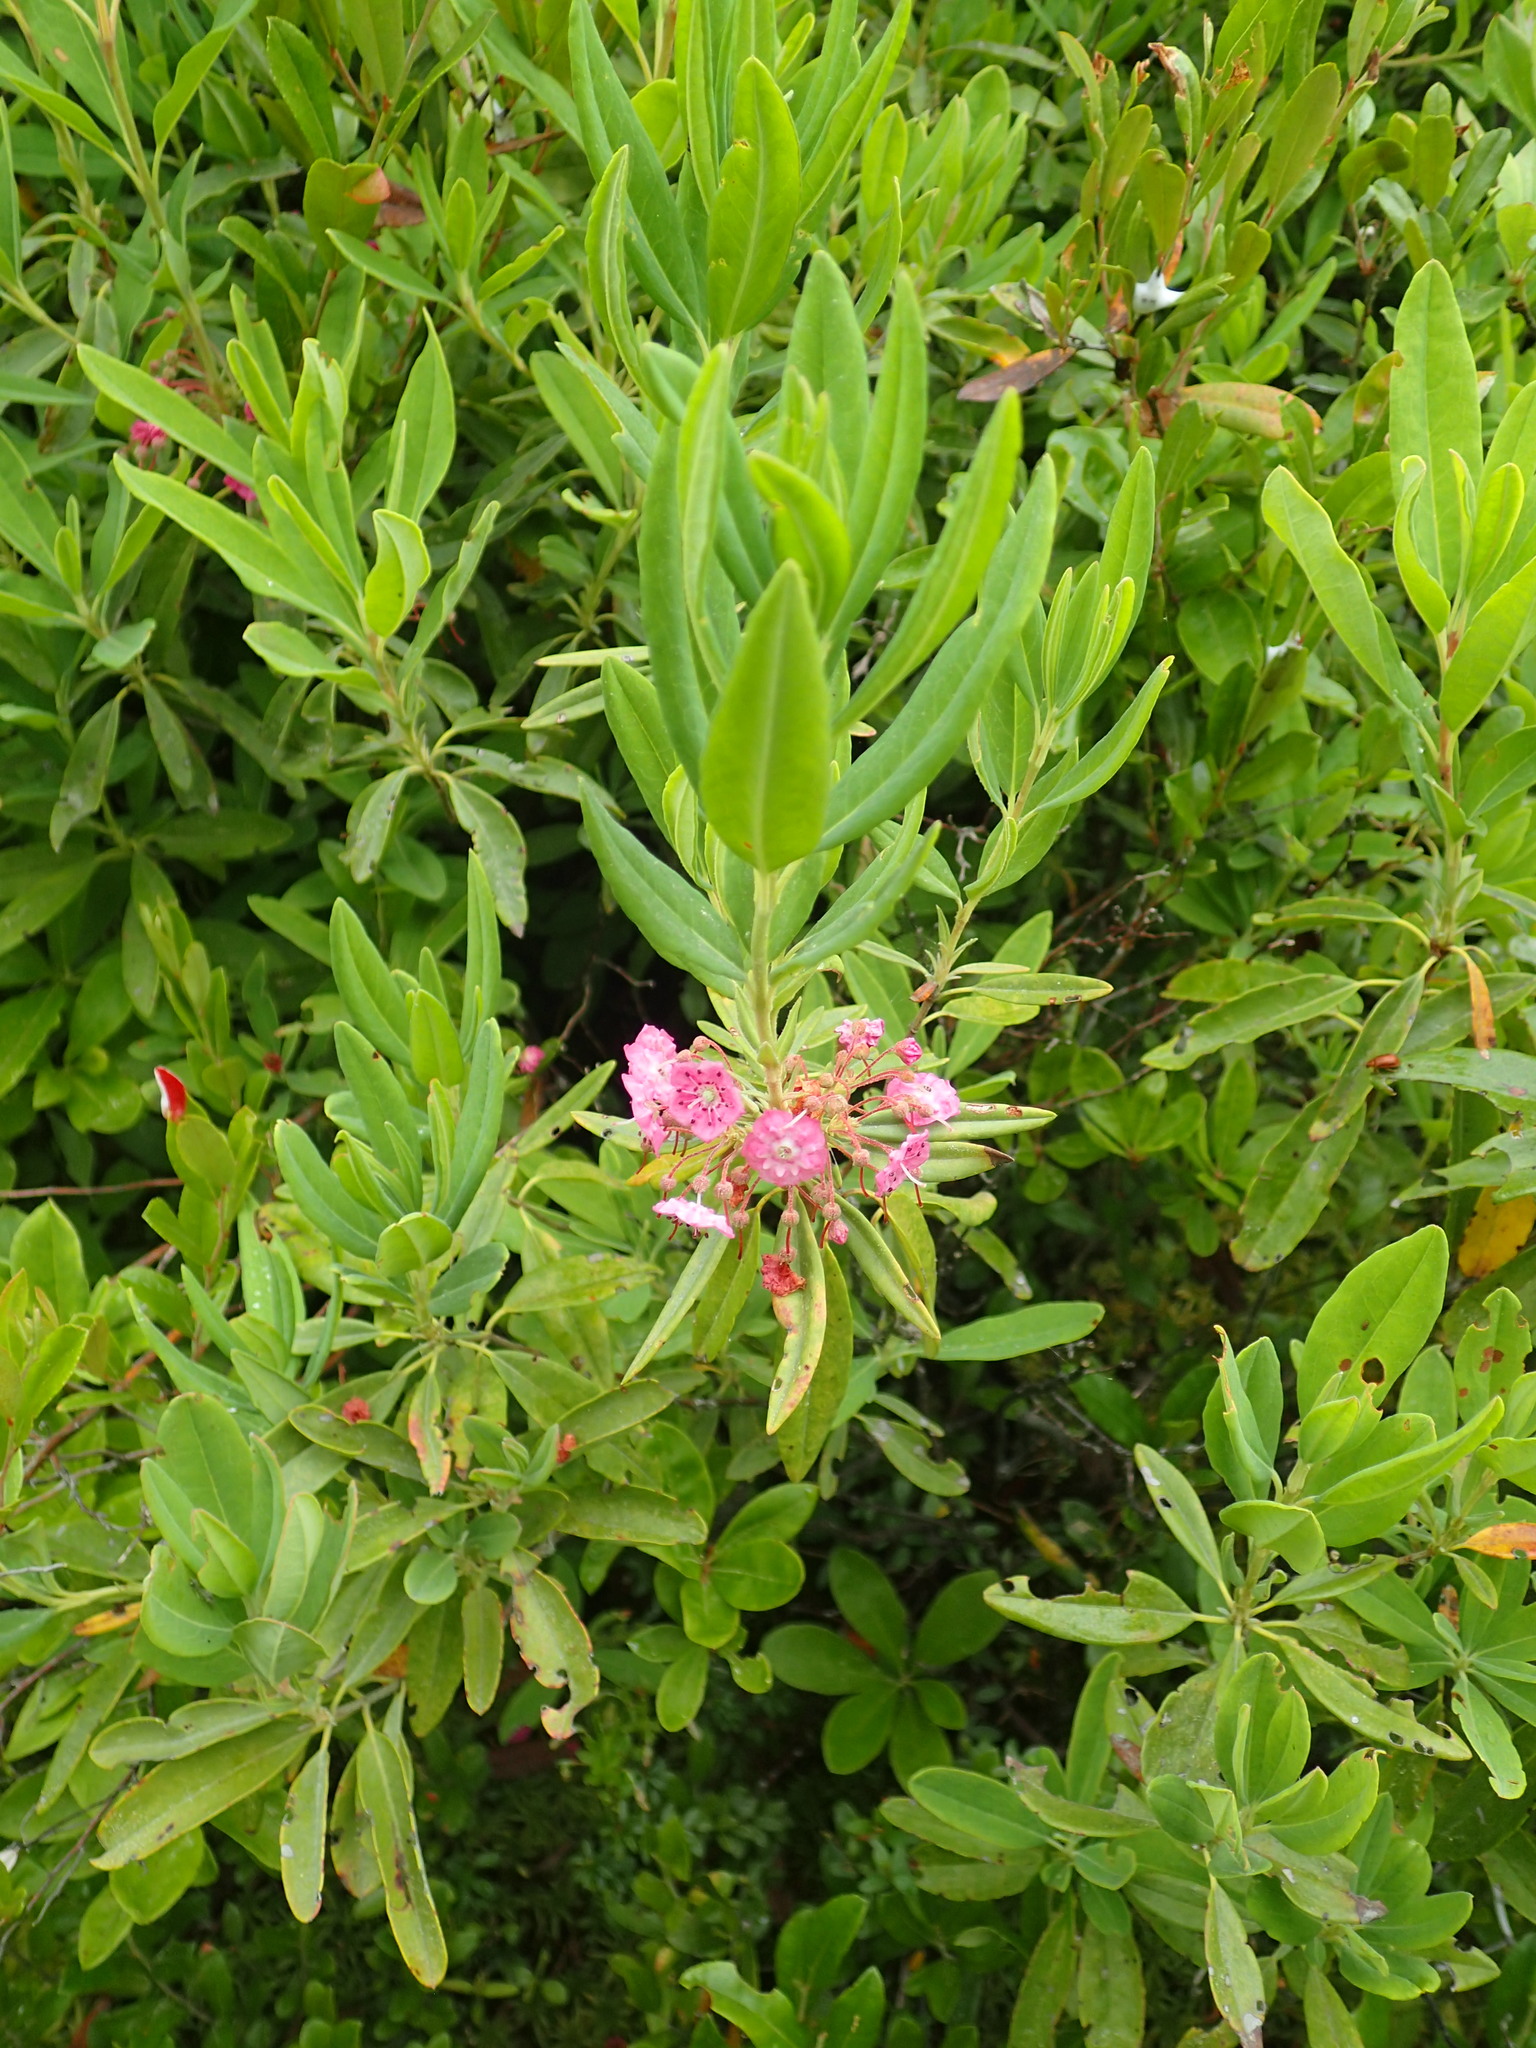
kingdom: Plantae
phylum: Tracheophyta
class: Magnoliopsida
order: Ericales
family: Ericaceae
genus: Kalmia
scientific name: Kalmia angustifolia
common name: Sheep-laurel
